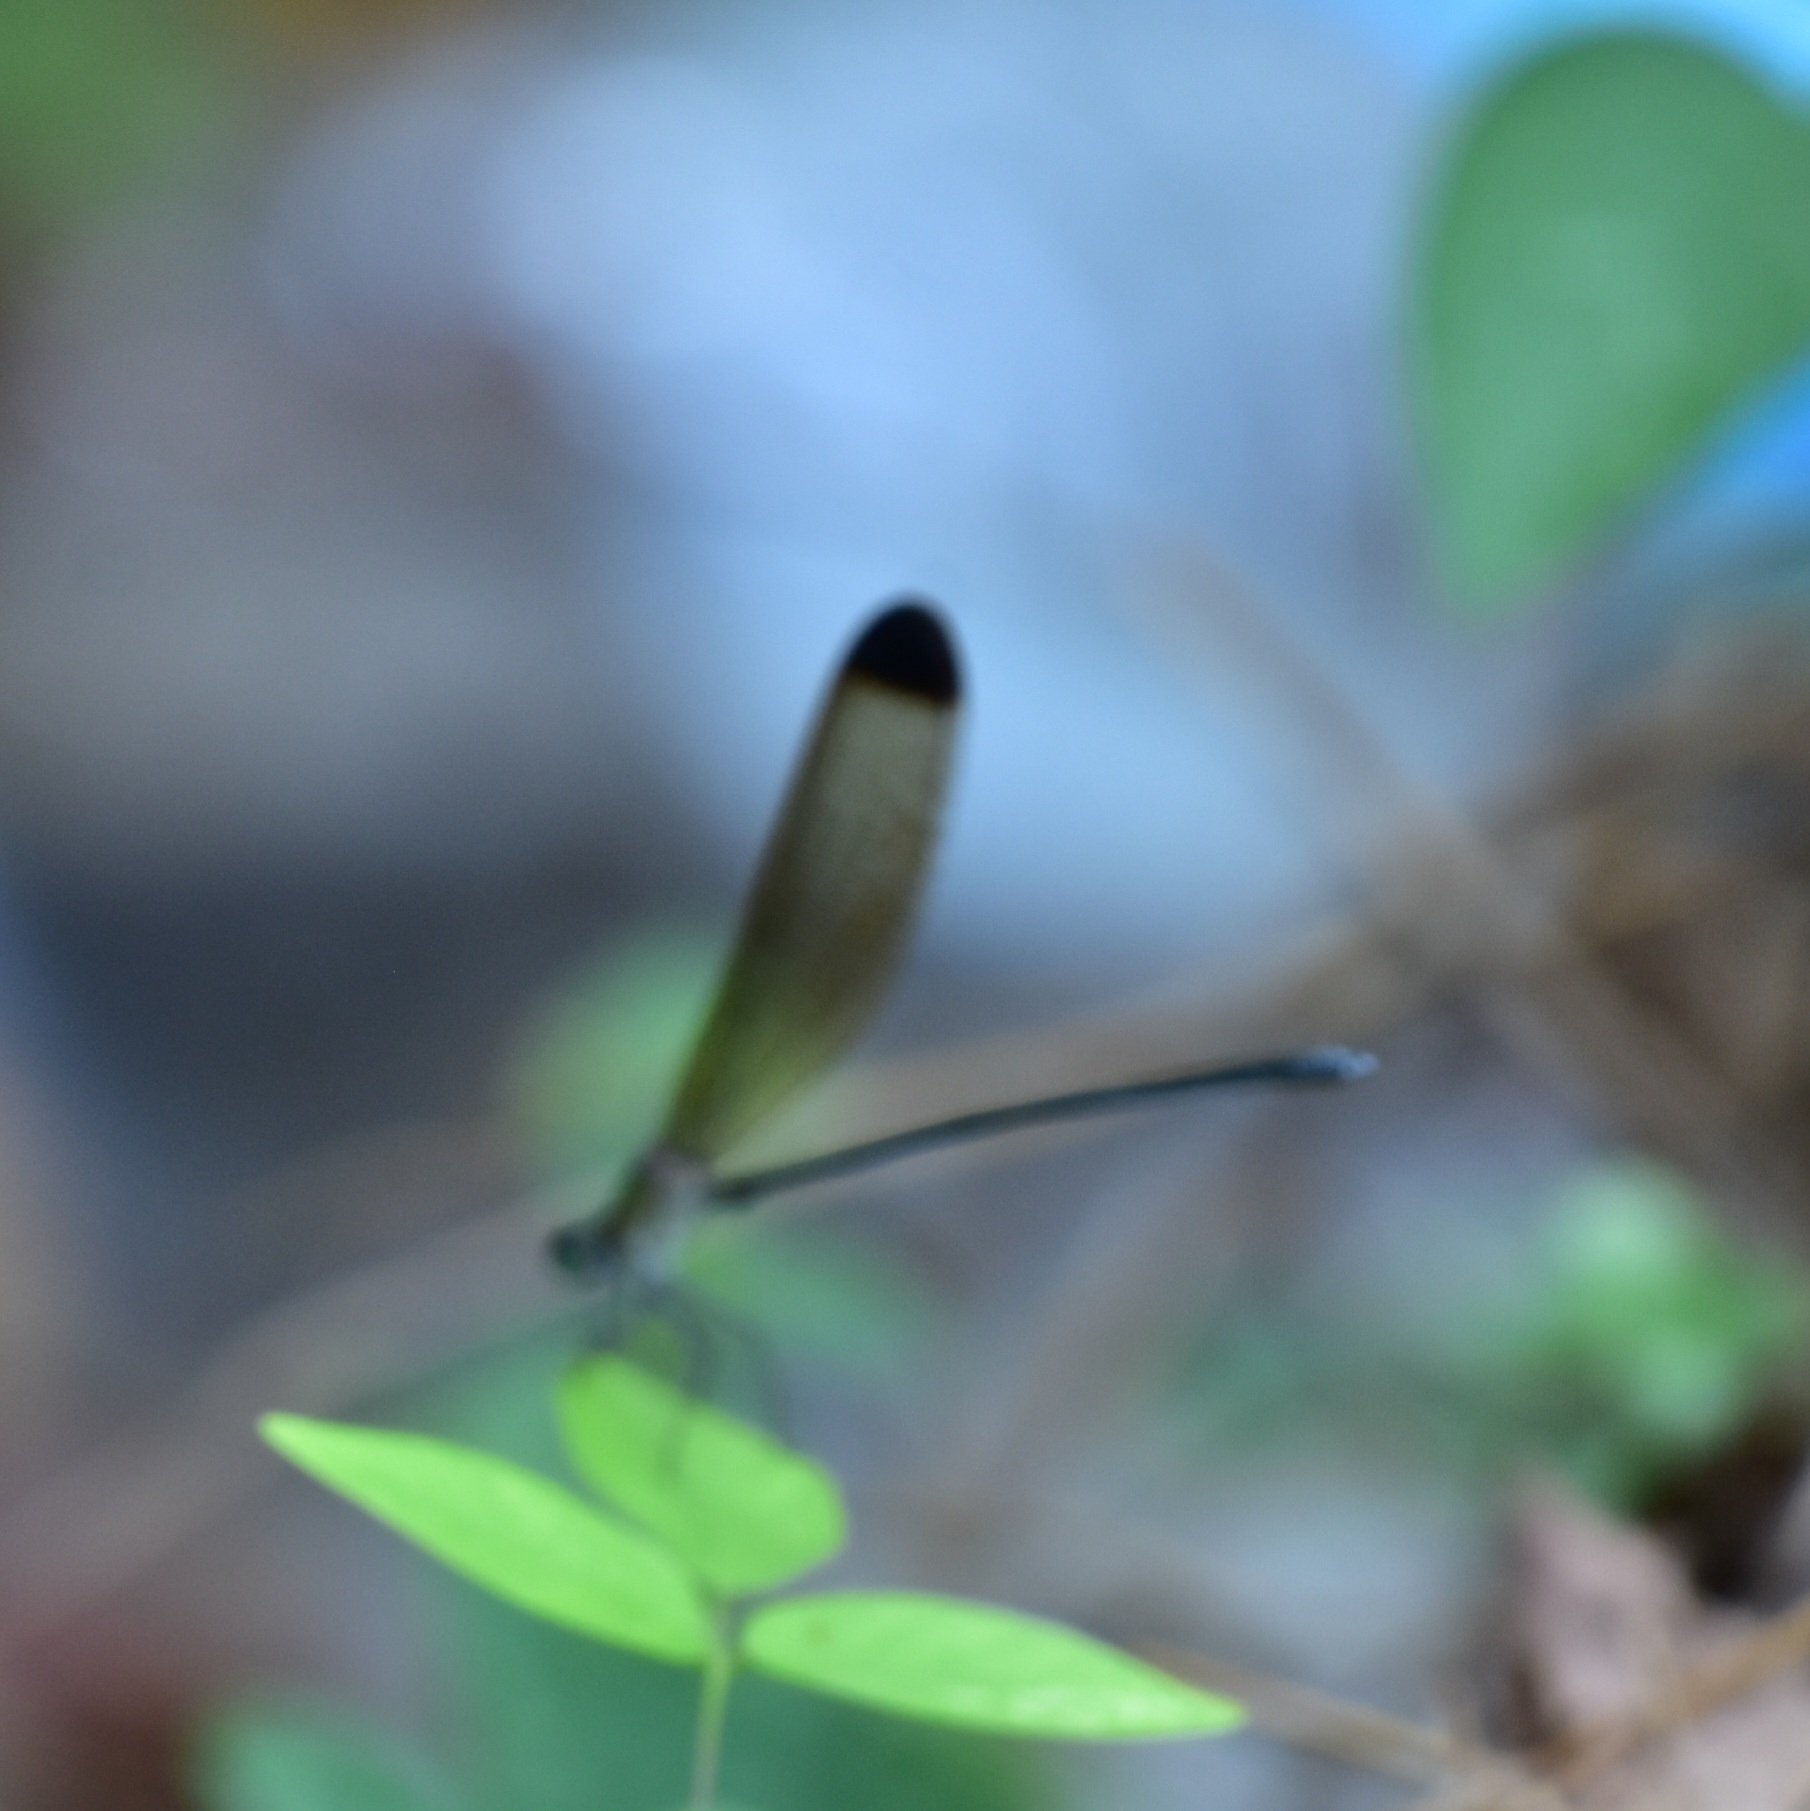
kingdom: Animalia
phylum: Arthropoda
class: Insecta
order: Odonata
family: Calopterygidae
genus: Vestalis
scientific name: Vestalis apicalis
